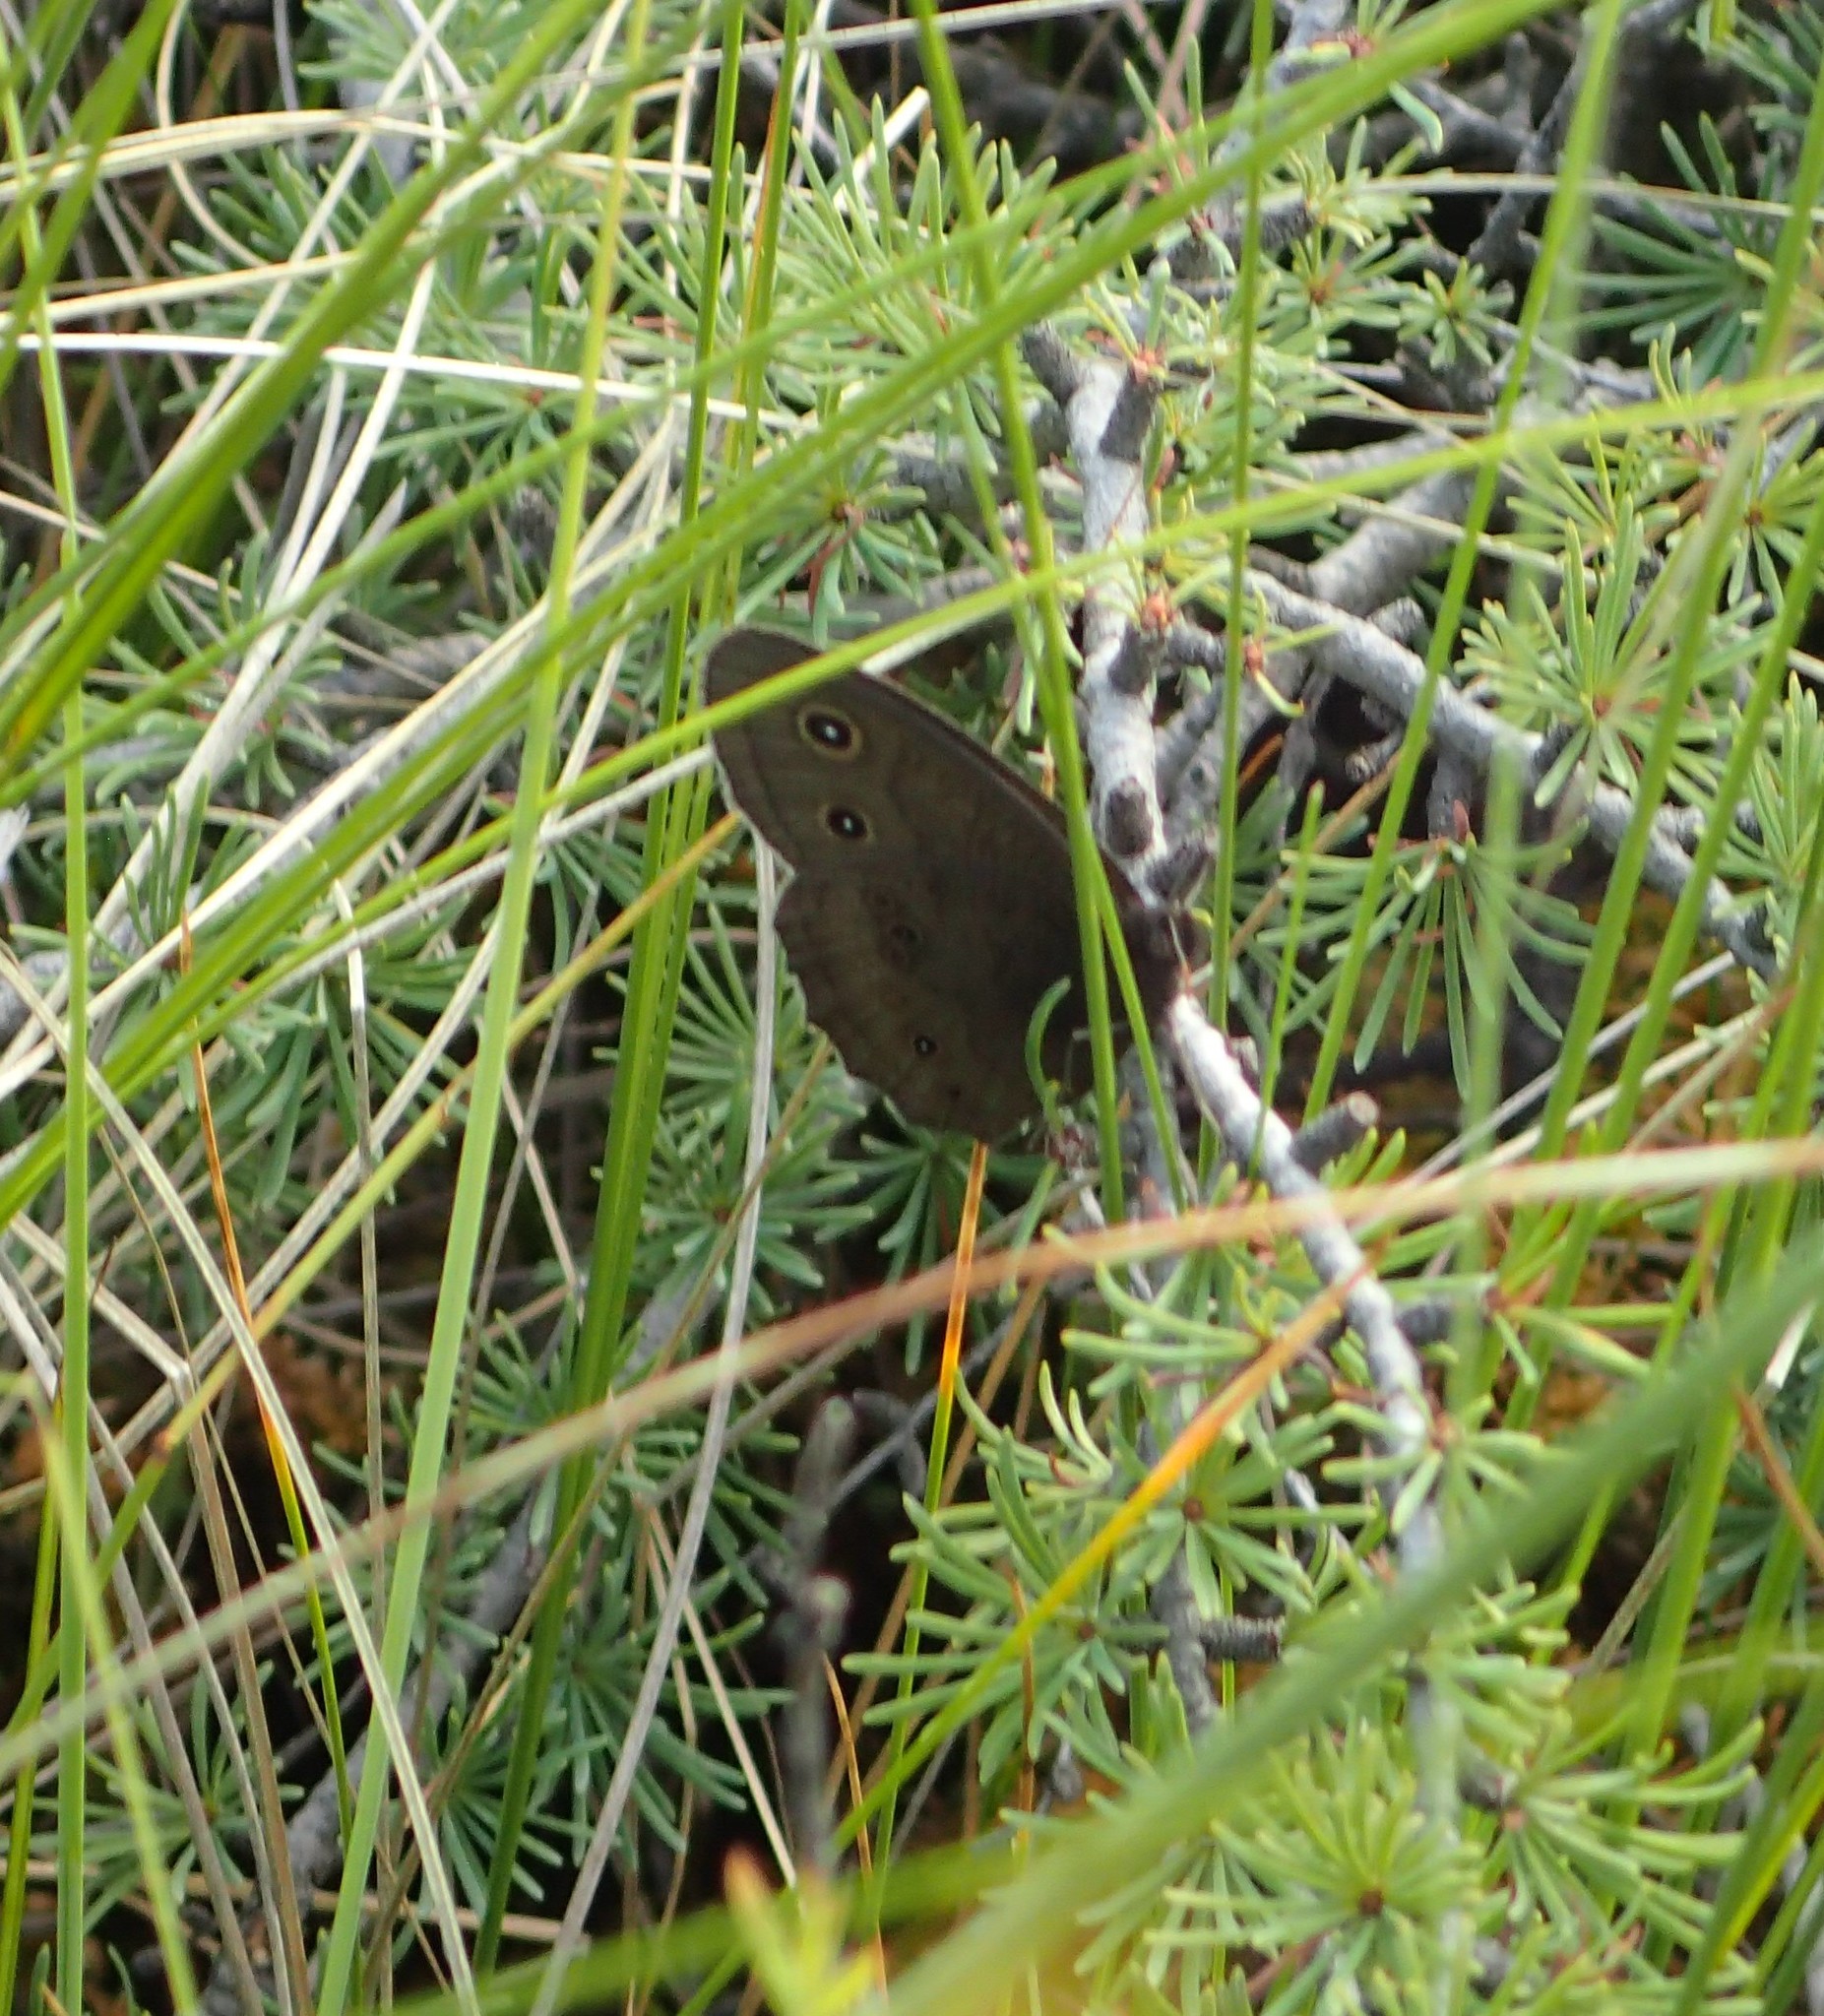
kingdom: Animalia
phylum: Arthropoda
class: Insecta
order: Lepidoptera
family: Nymphalidae
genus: Cercyonis
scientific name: Cercyonis pegala
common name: Common wood-nymph
